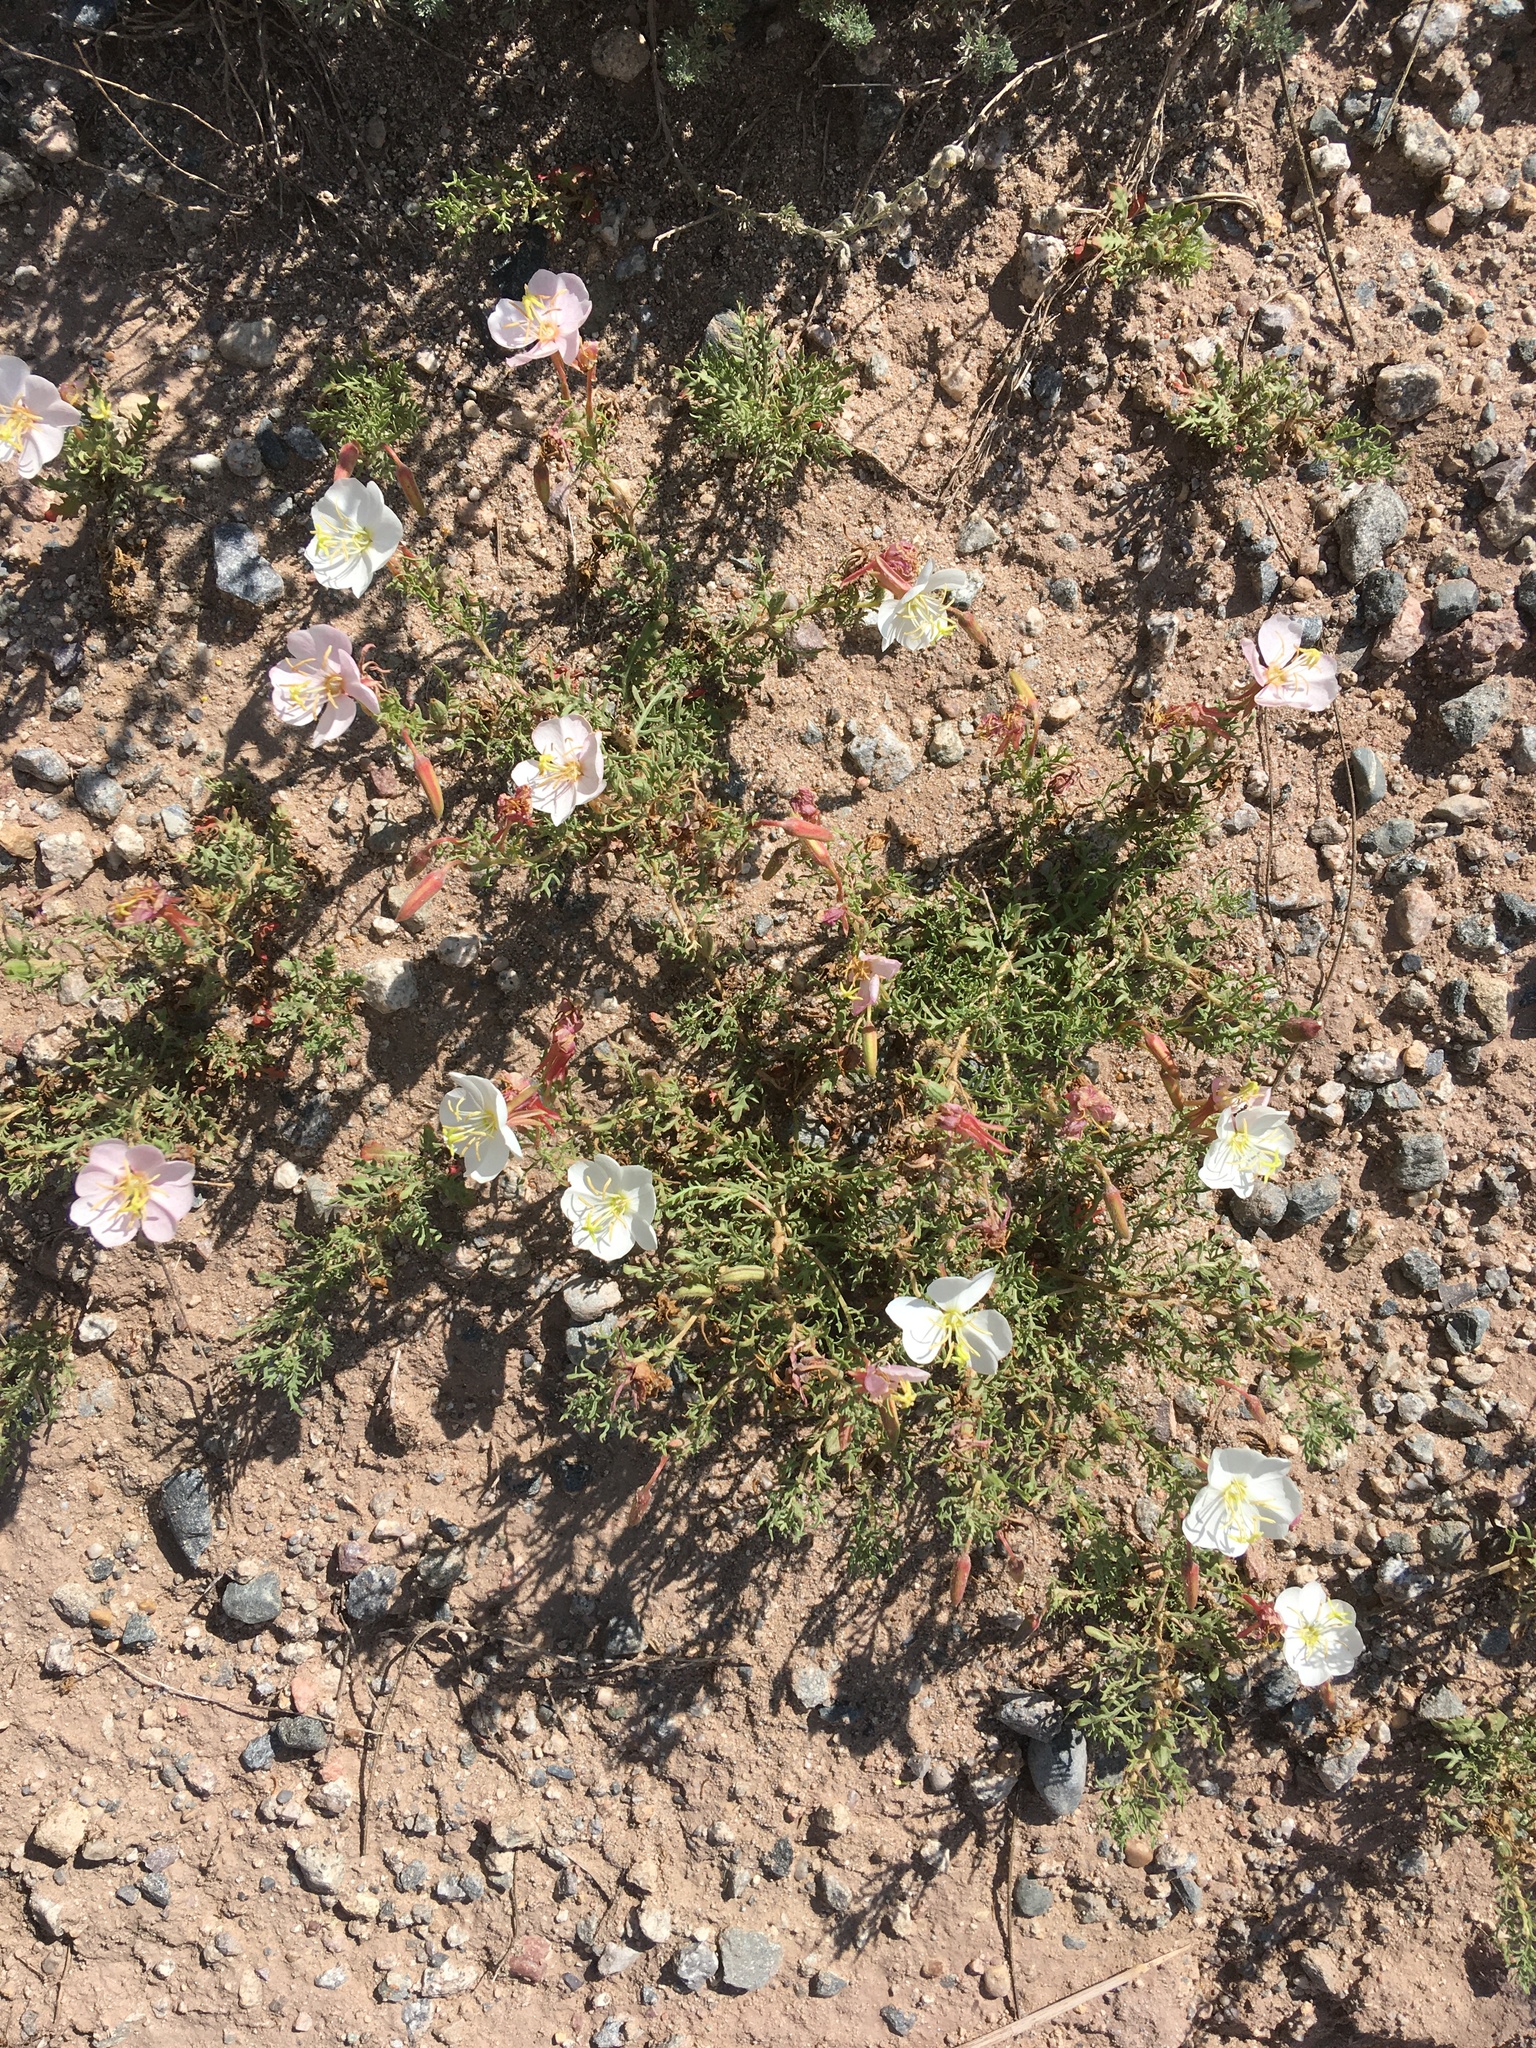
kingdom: Plantae
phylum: Tracheophyta
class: Magnoliopsida
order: Myrtales
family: Onagraceae
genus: Oenothera
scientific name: Oenothera pallida
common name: Pale evening-primrose
